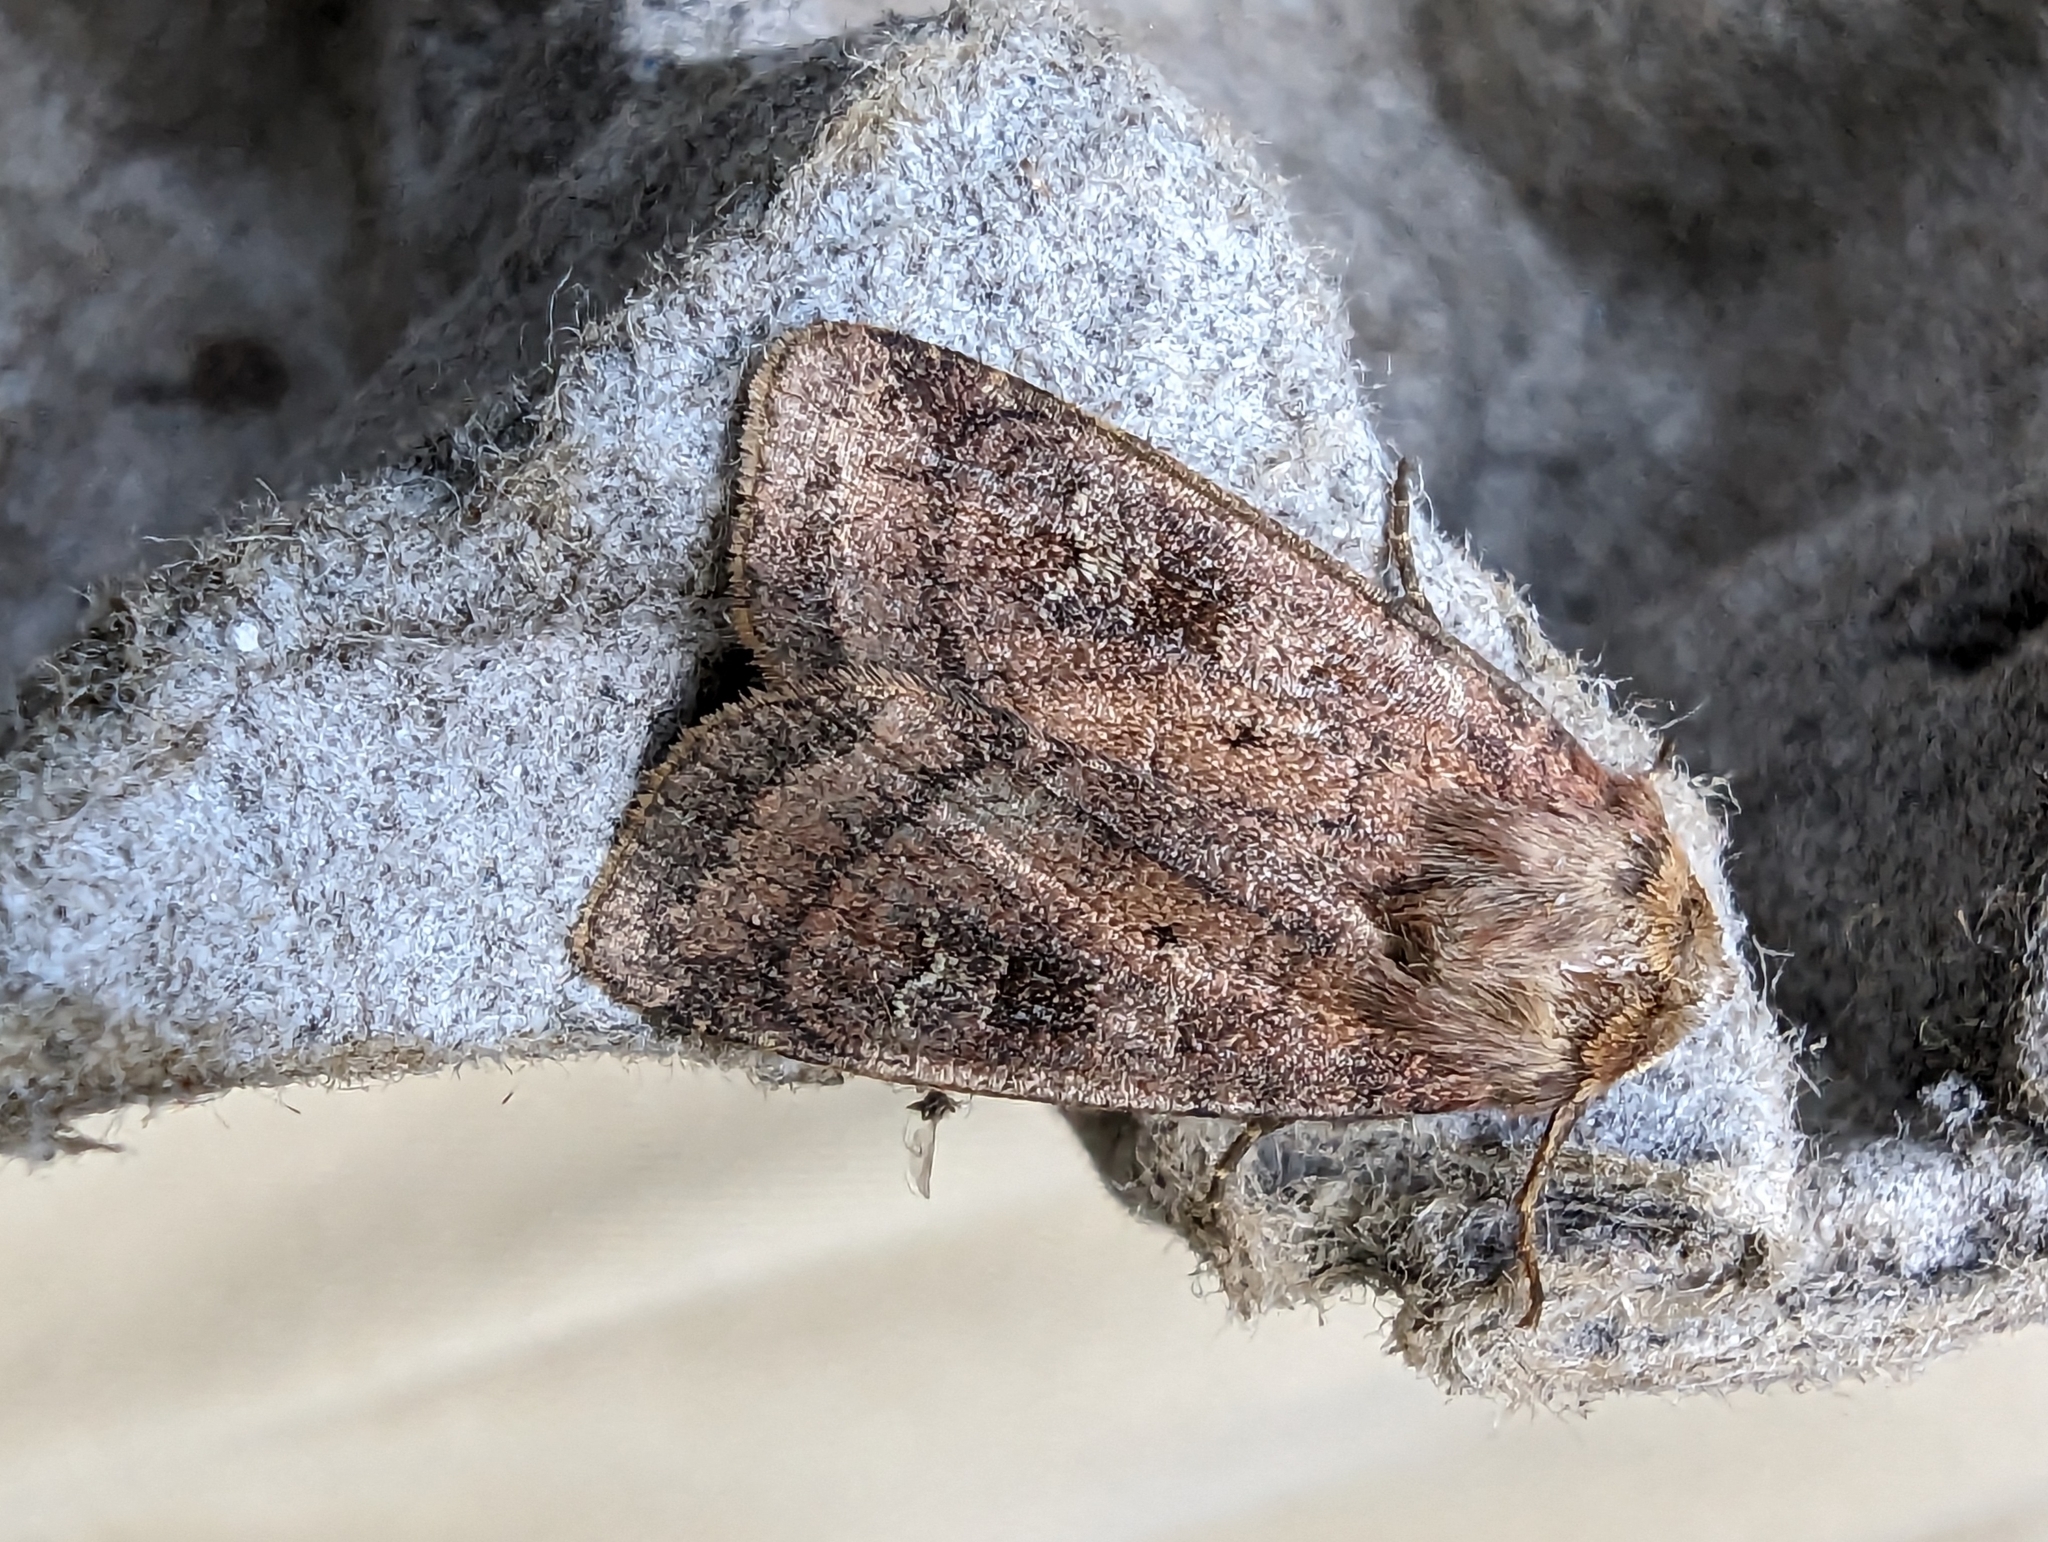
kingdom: Animalia
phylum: Arthropoda
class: Insecta
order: Lepidoptera
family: Noctuidae
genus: Diarsia
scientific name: Diarsia rubi
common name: Small square-spot
